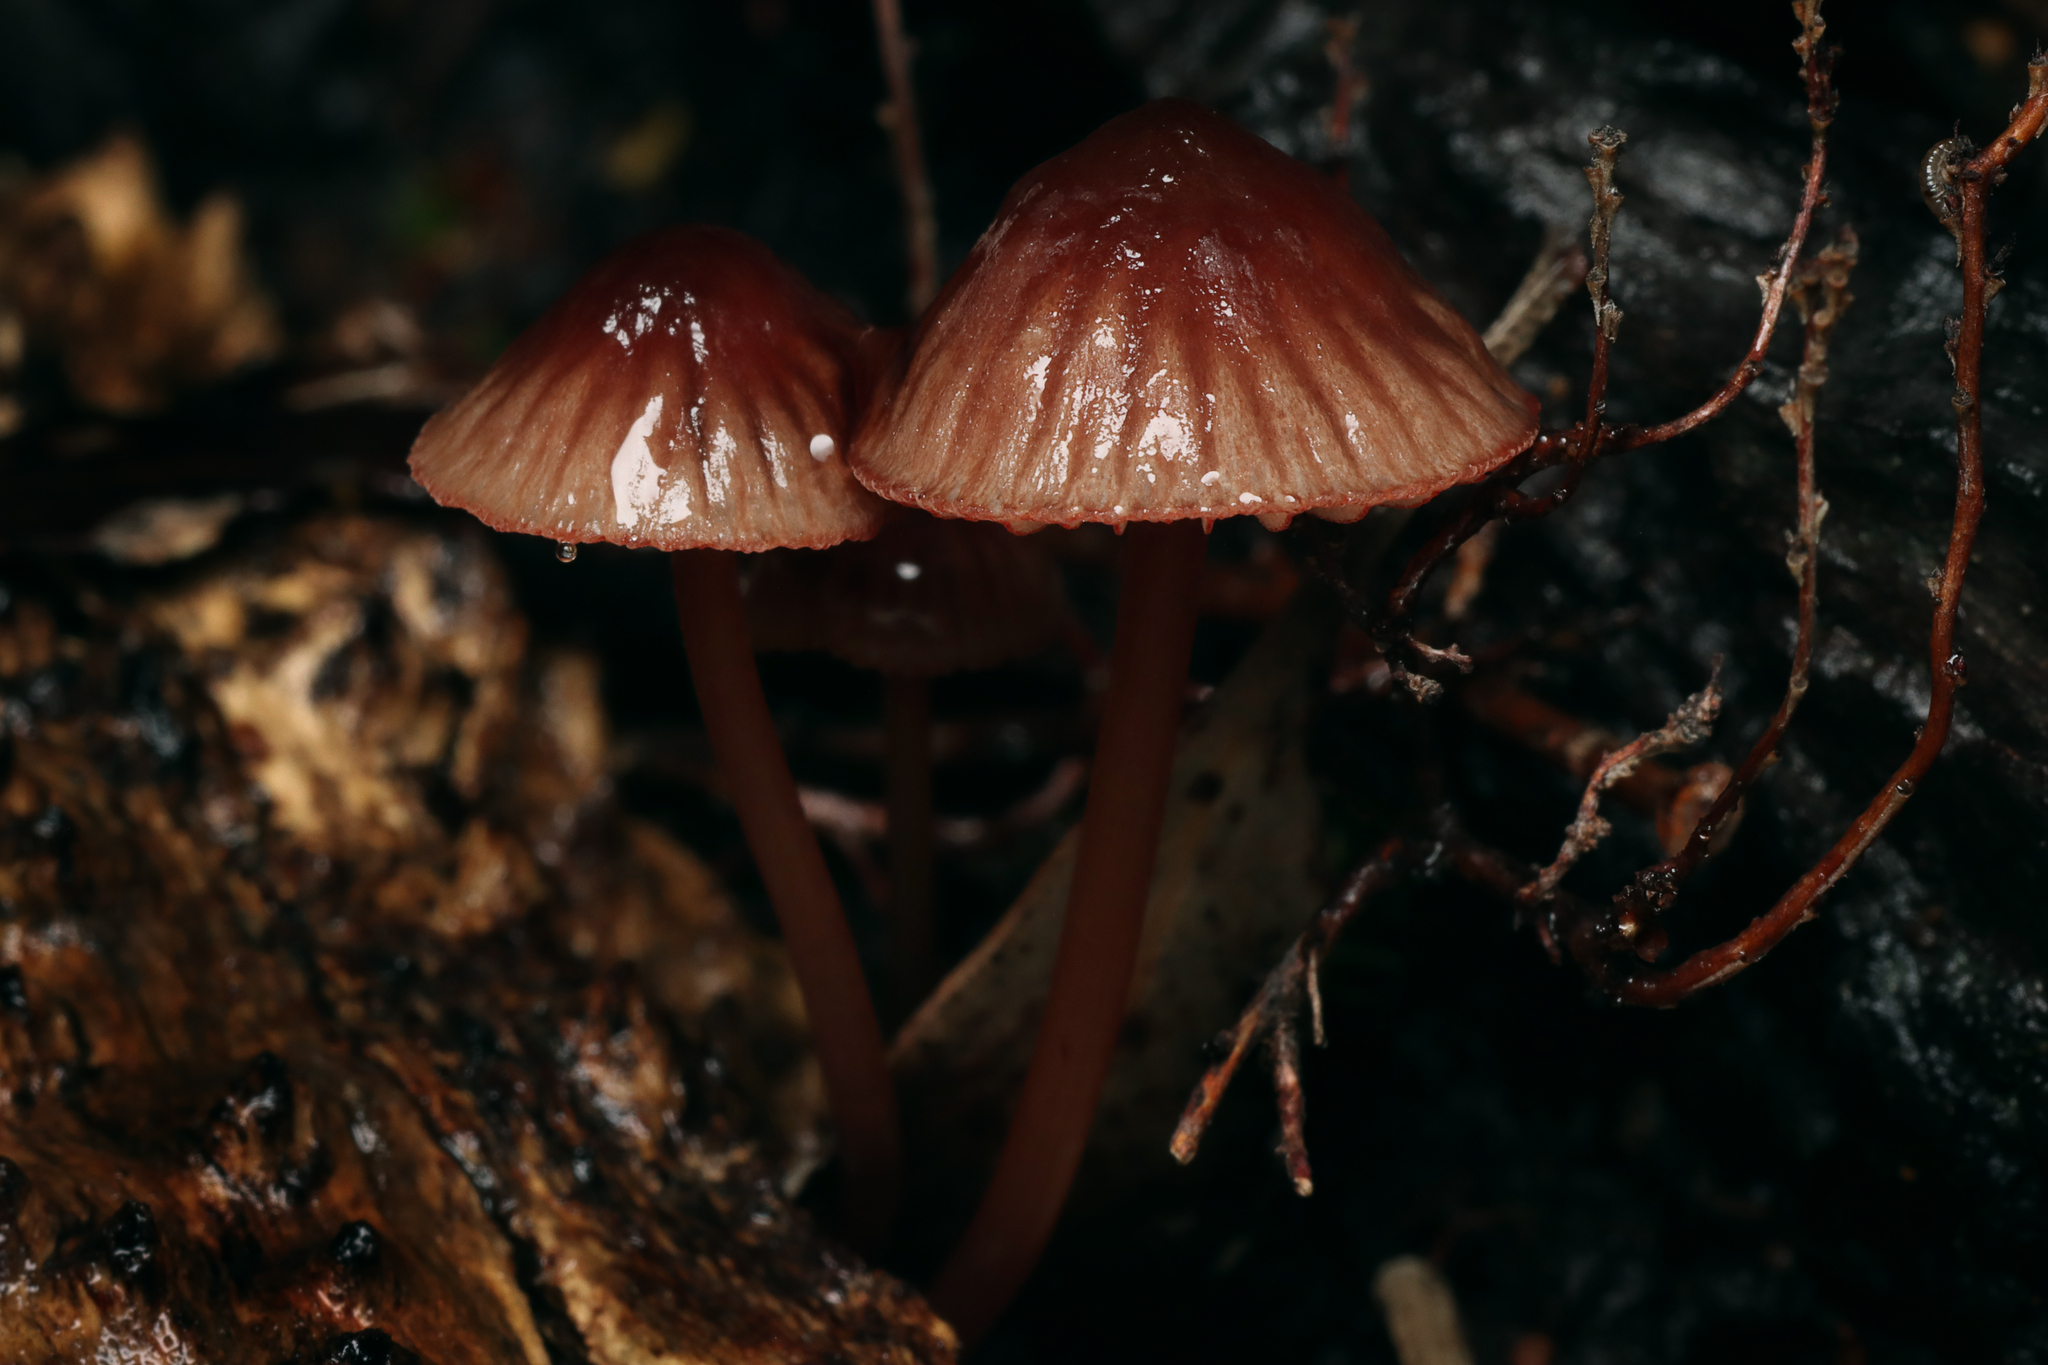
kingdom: Fungi
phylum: Basidiomycota
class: Agaricomycetes
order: Agaricales
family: Mycenaceae
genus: Mycena
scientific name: Mycena kuurkacea
